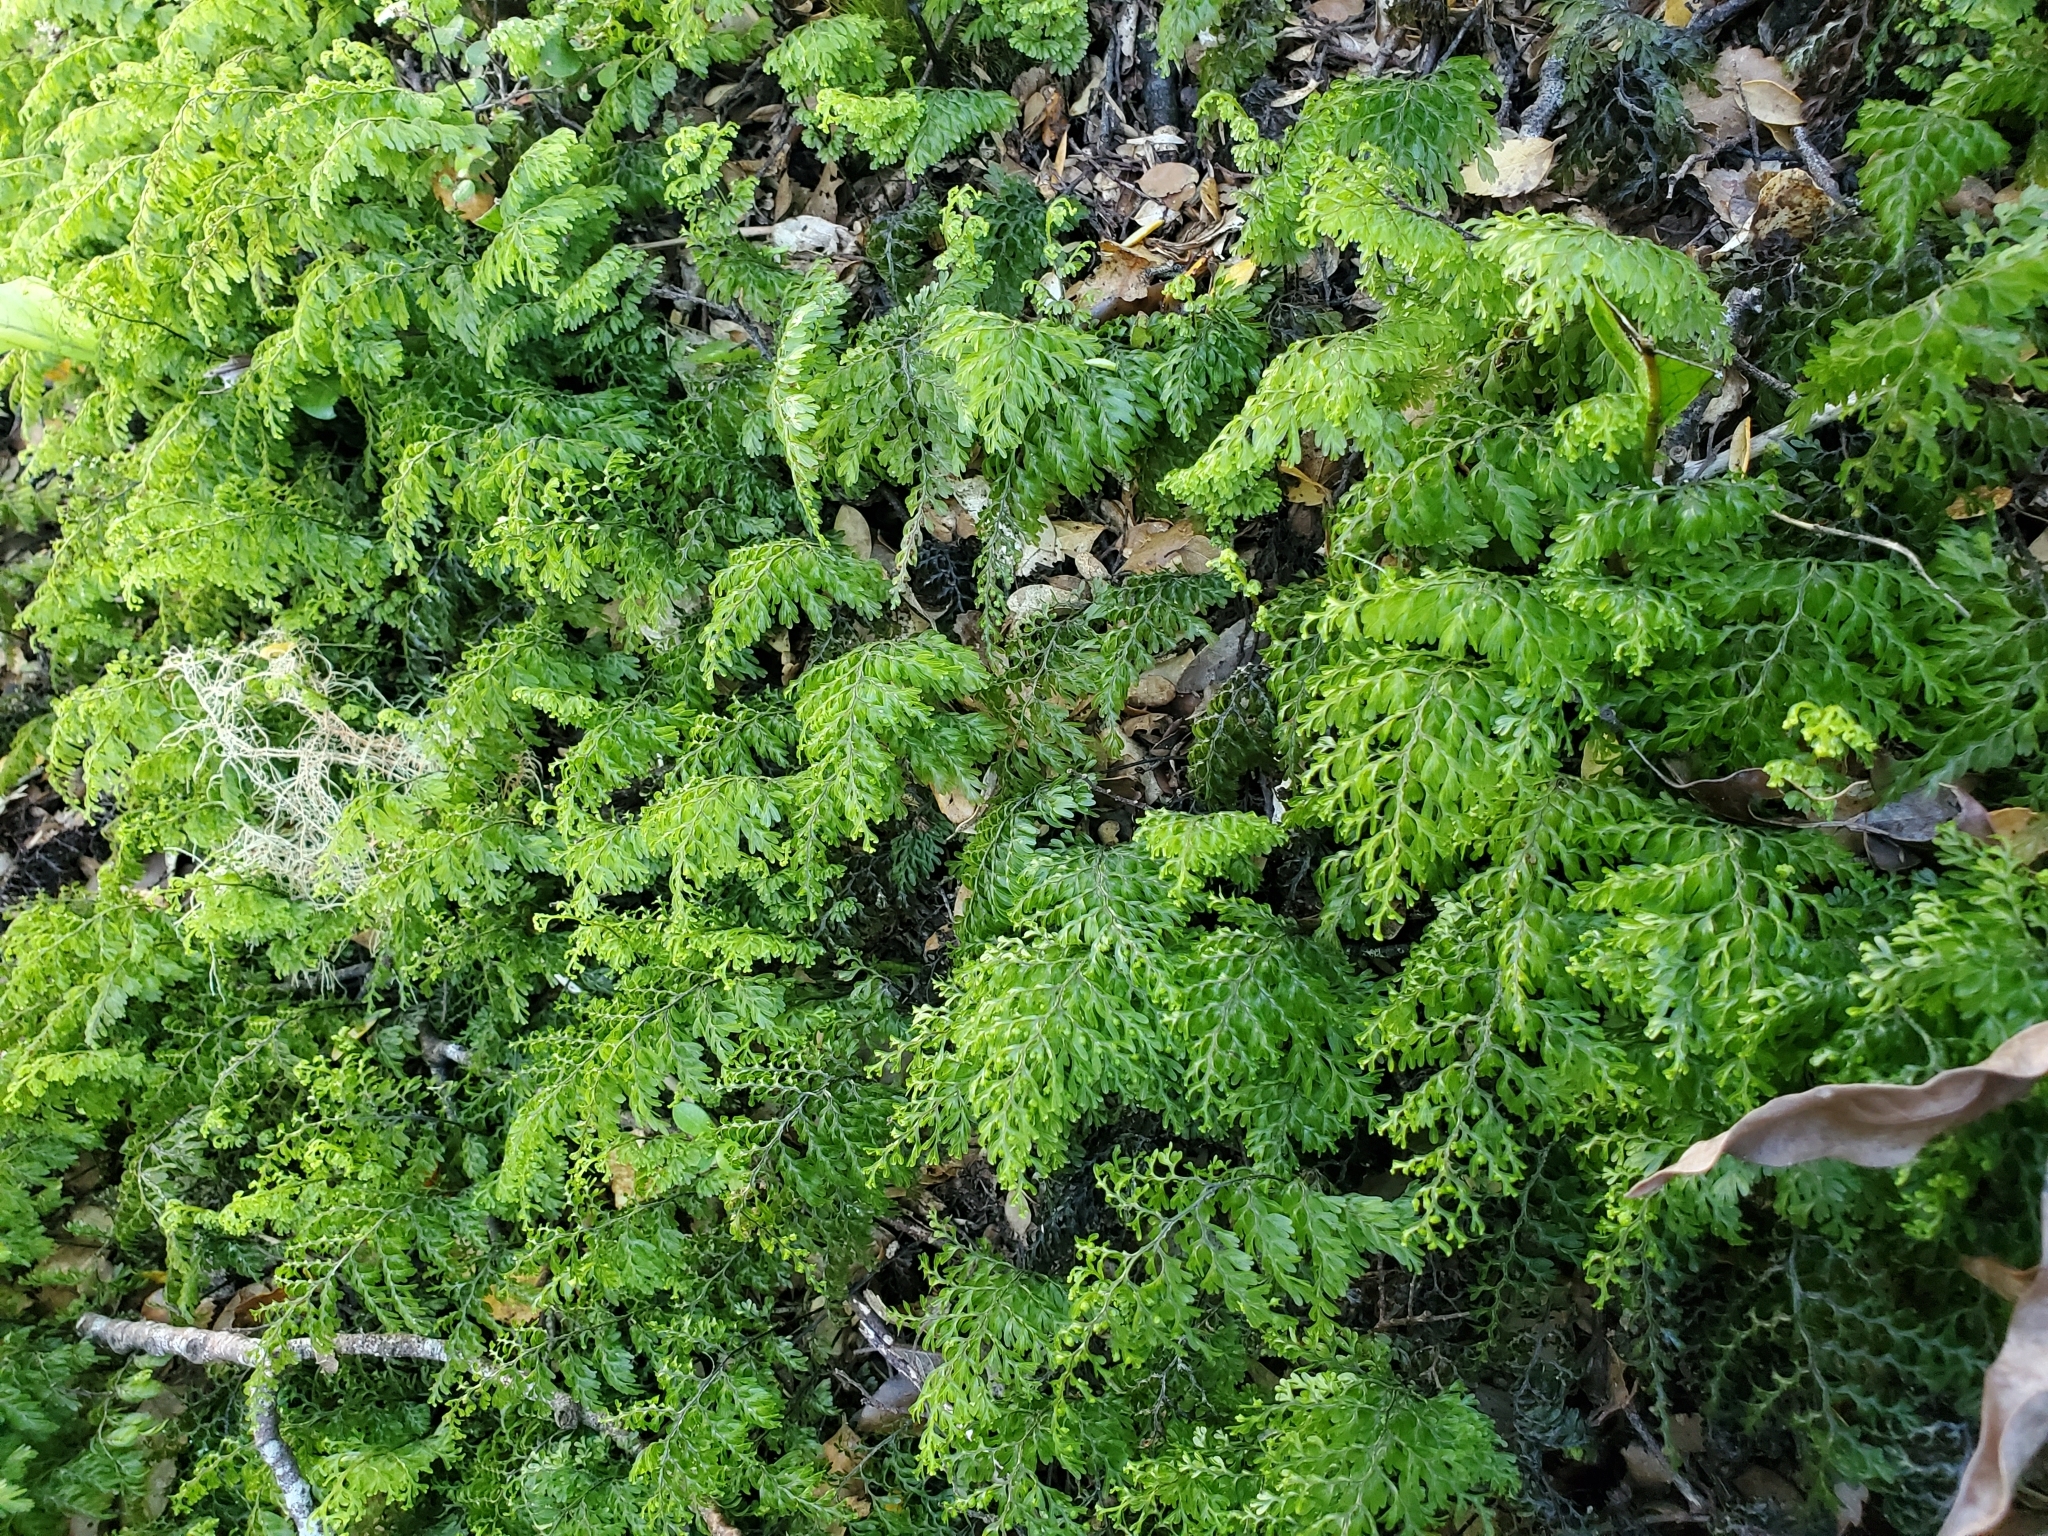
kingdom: Plantae
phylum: Tracheophyta
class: Polypodiopsida
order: Hymenophyllales
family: Hymenophyllaceae
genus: Hymenophyllum
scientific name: Hymenophyllum sanguinolentum
